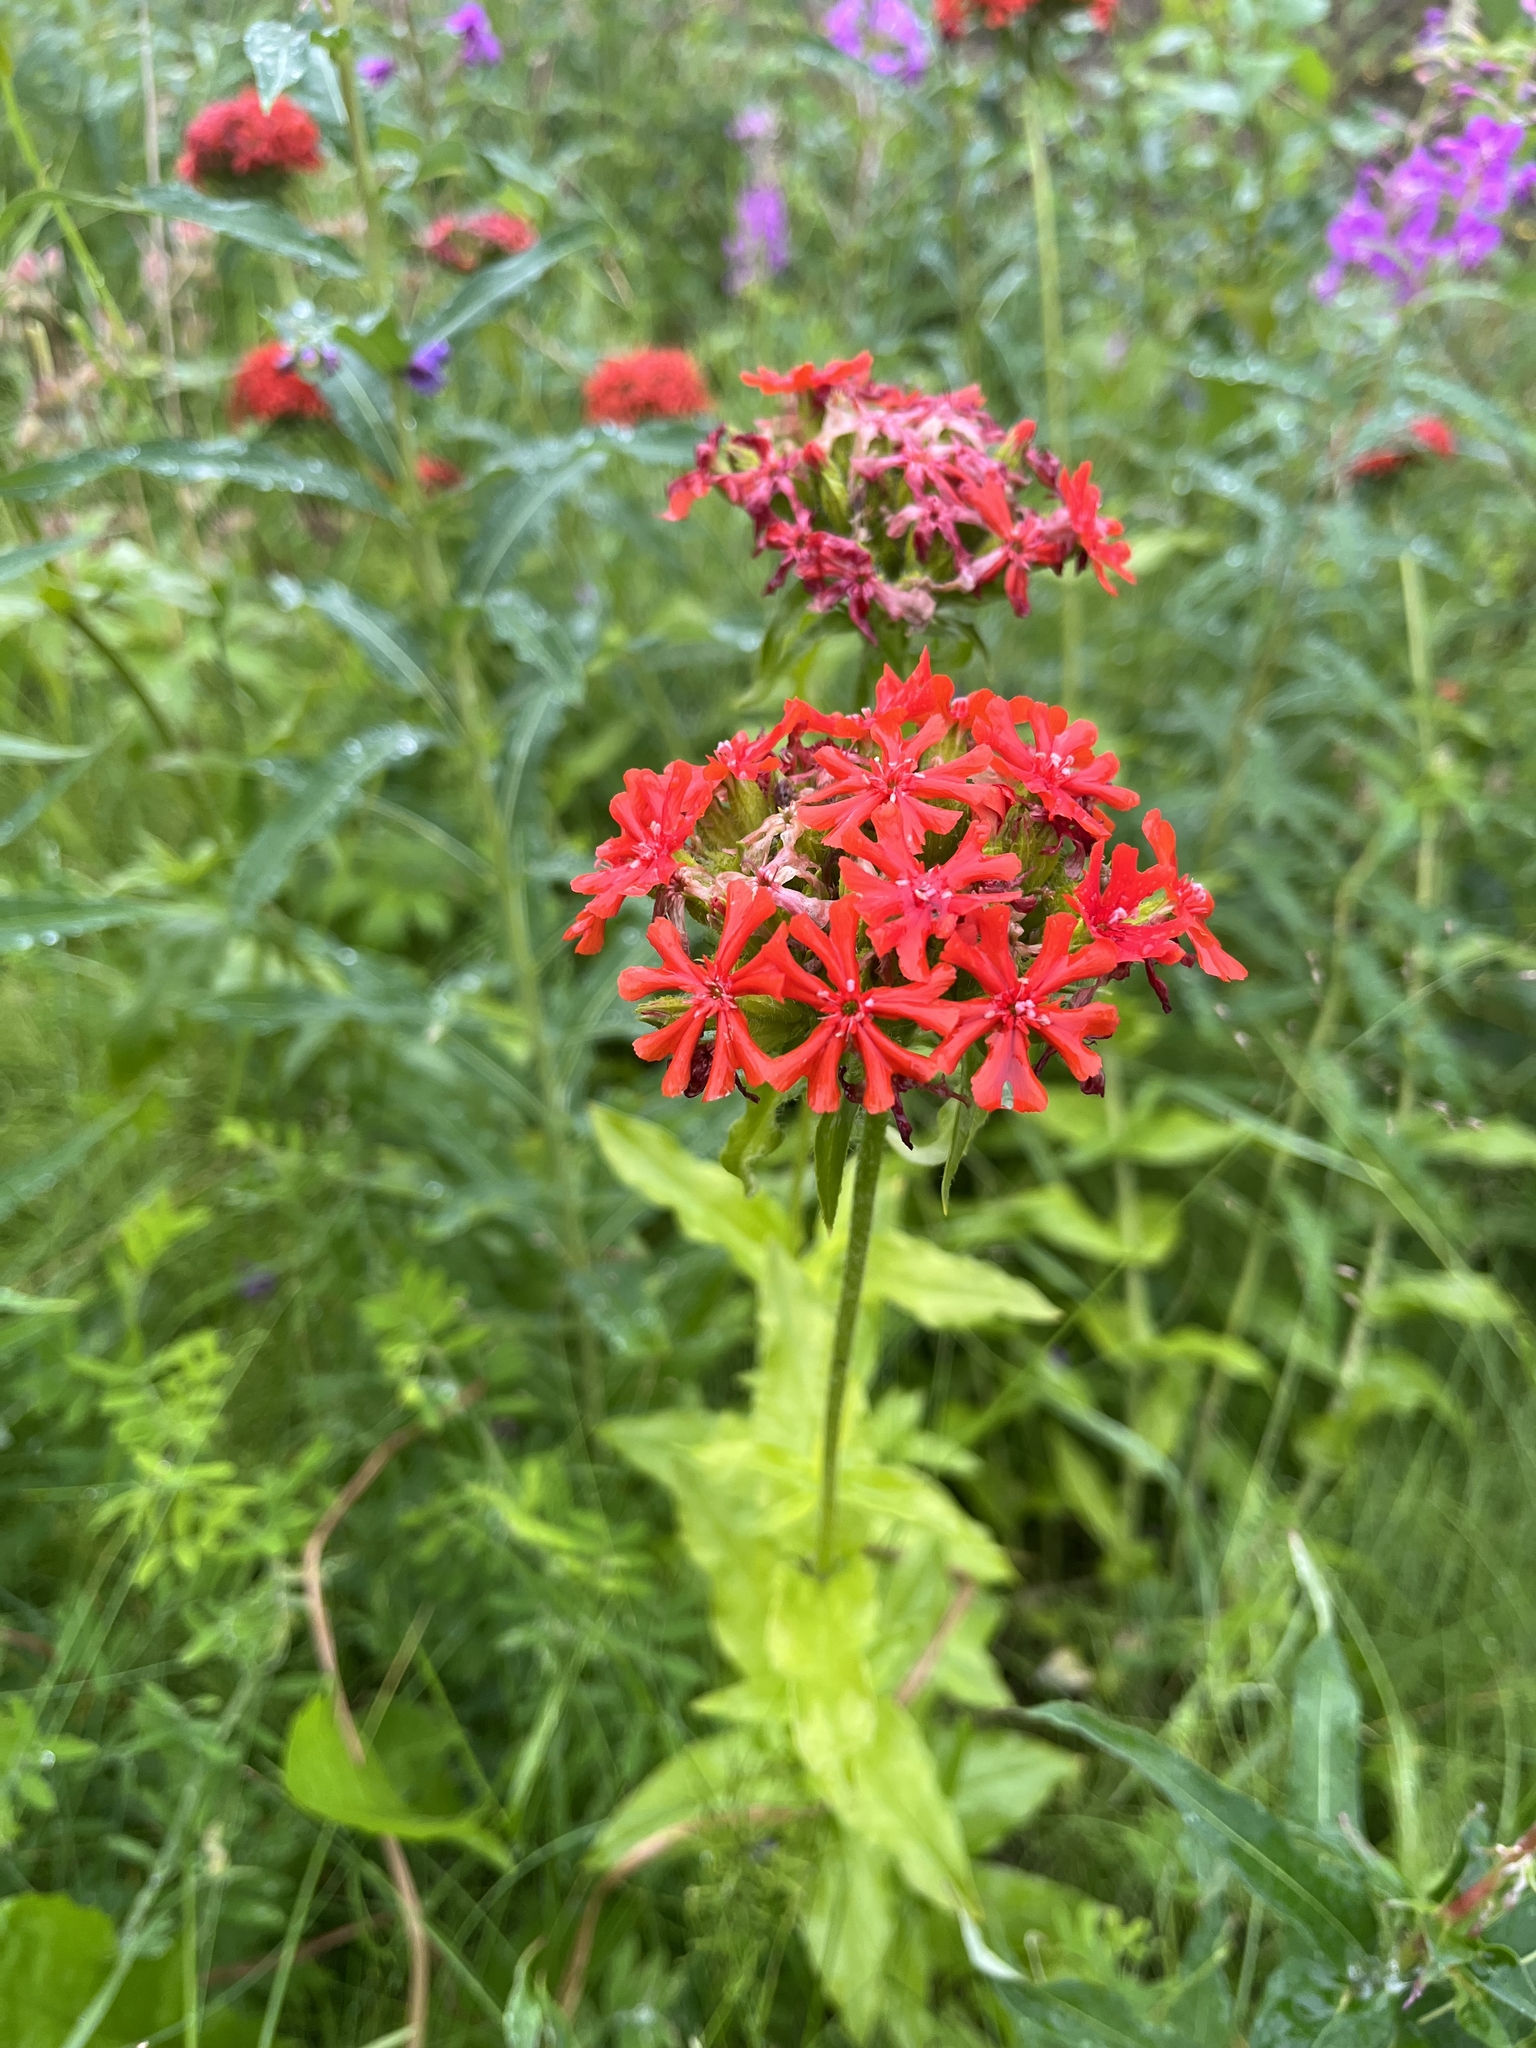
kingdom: Plantae
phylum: Tracheophyta
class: Magnoliopsida
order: Caryophyllales
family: Caryophyllaceae
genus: Silene
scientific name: Silene chalcedonica
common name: Maltese-cross
